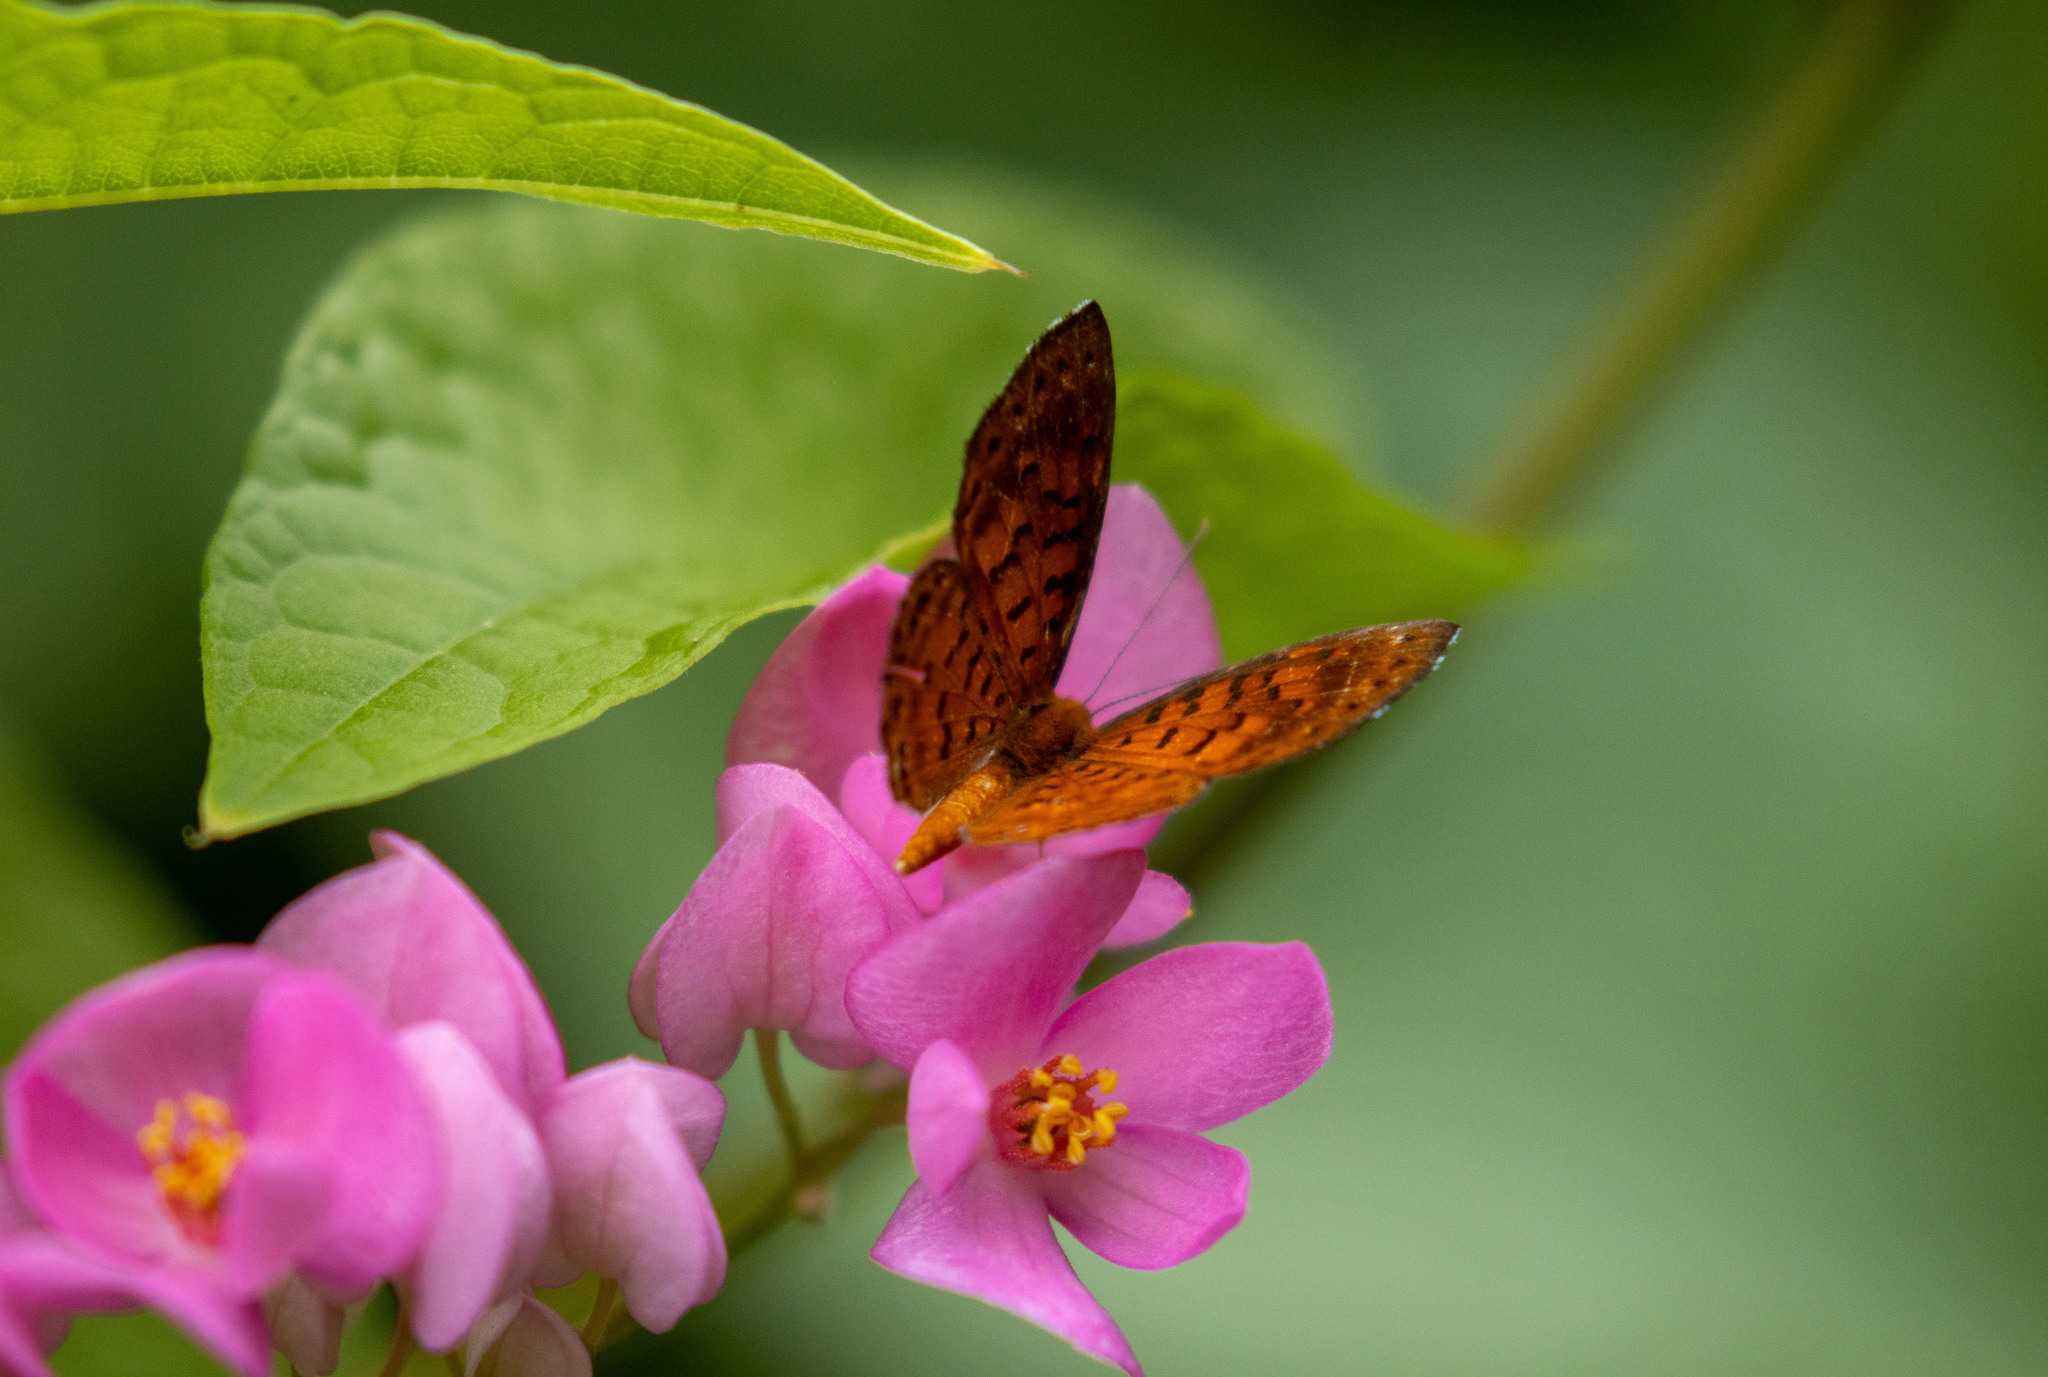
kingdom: Animalia
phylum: Arthropoda
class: Insecta
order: Lepidoptera
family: Riodinidae
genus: Polystichtis
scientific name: Polystichtis lucianus
